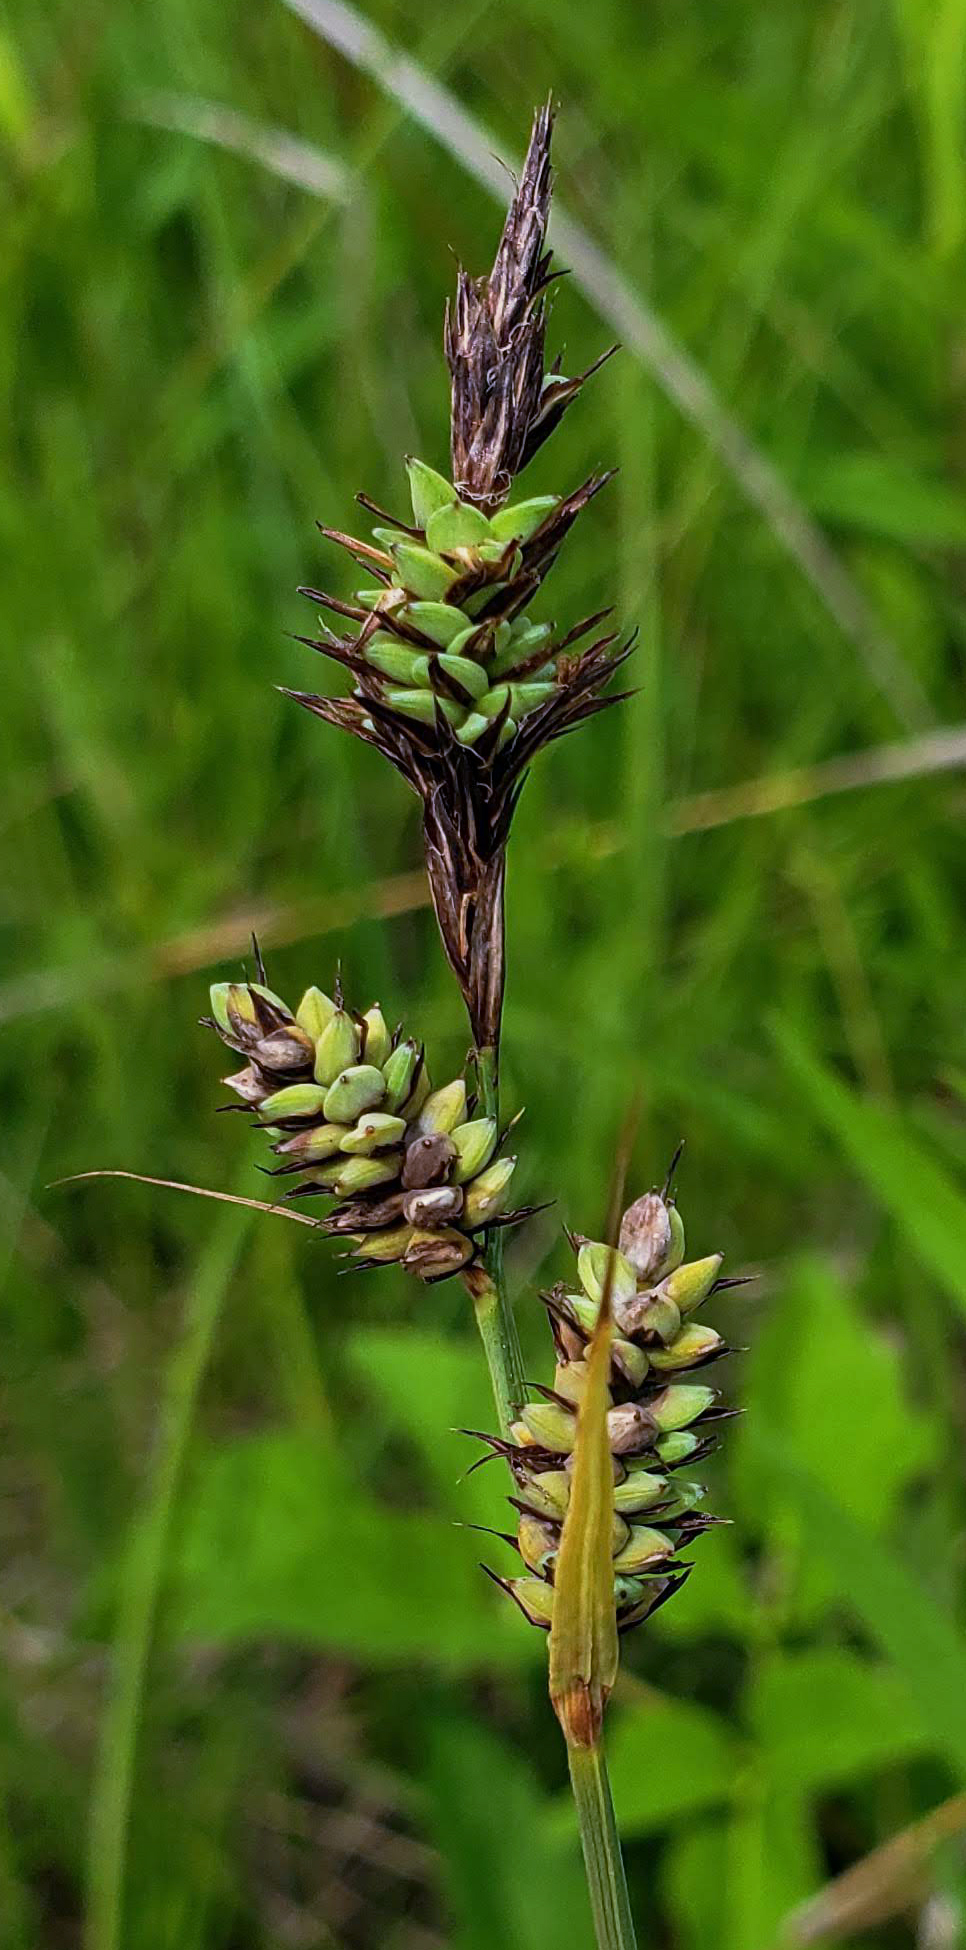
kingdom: Plantae
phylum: Tracheophyta
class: Liliopsida
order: Poales
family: Cyperaceae
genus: Carex
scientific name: Carex buxbaumii
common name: Club sedge
